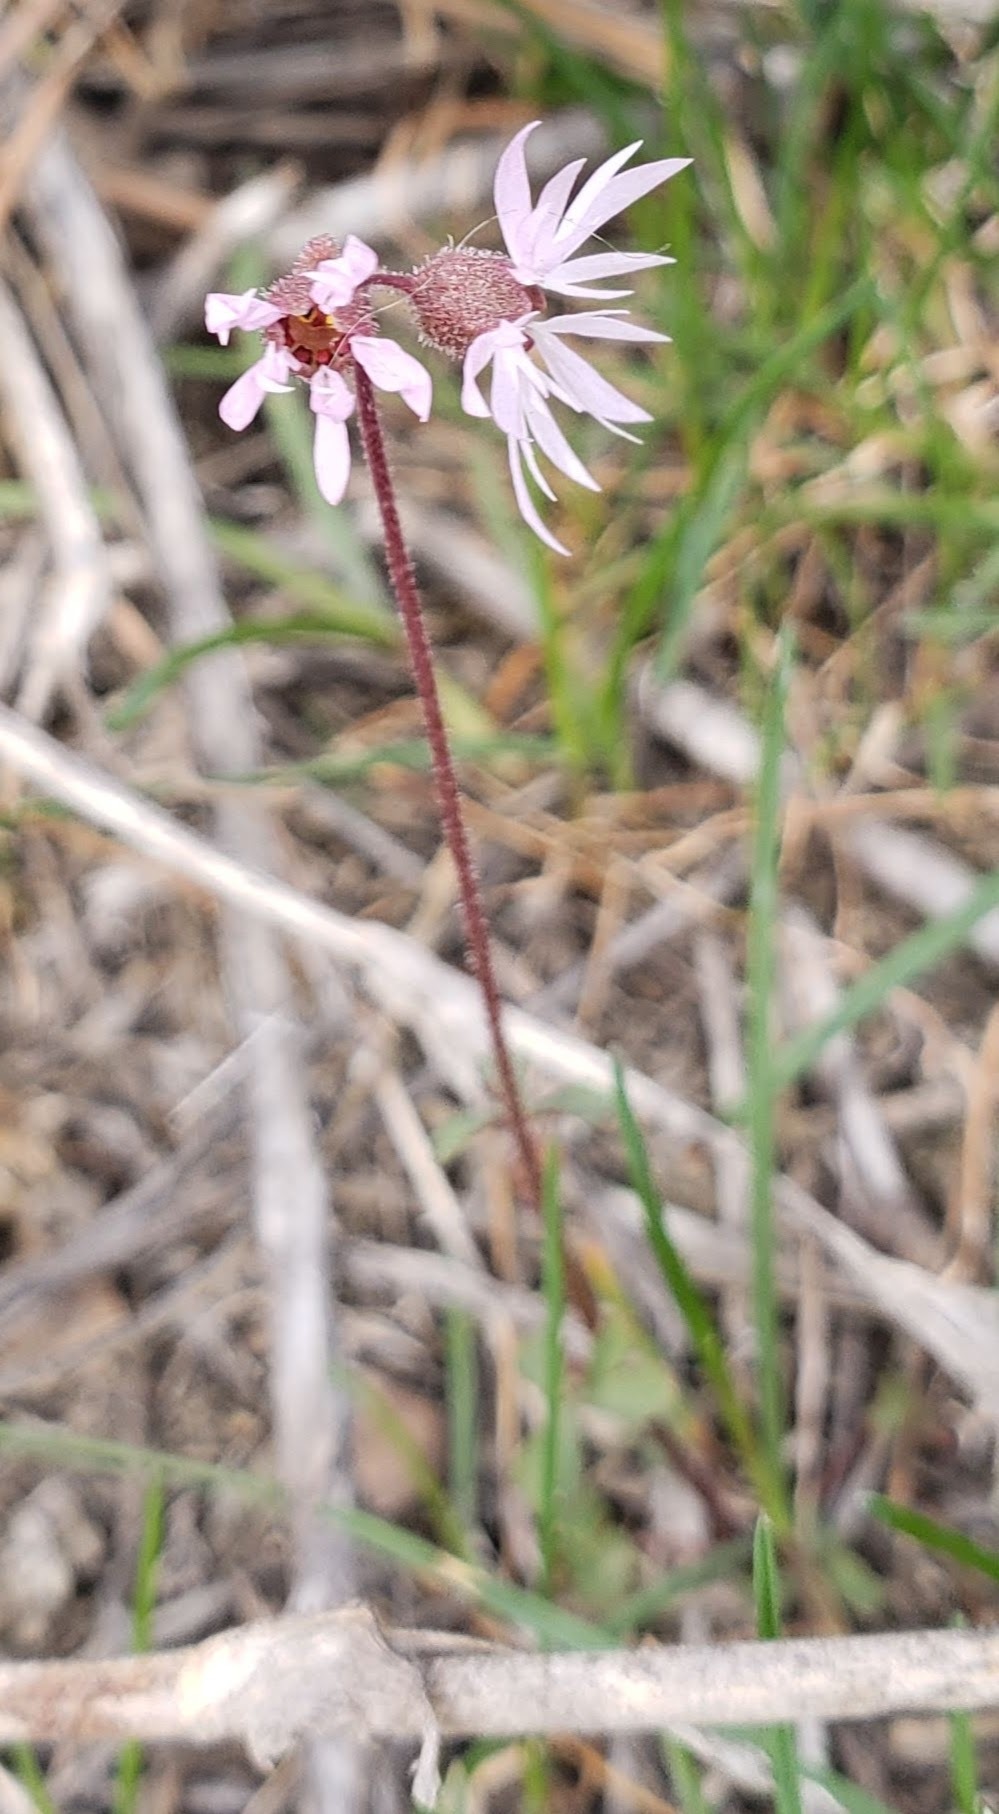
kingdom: Plantae
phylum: Tracheophyta
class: Magnoliopsida
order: Saxifragales
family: Saxifragaceae
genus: Lithophragma
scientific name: Lithophragma glabrum
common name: Bulbous prairie-star
